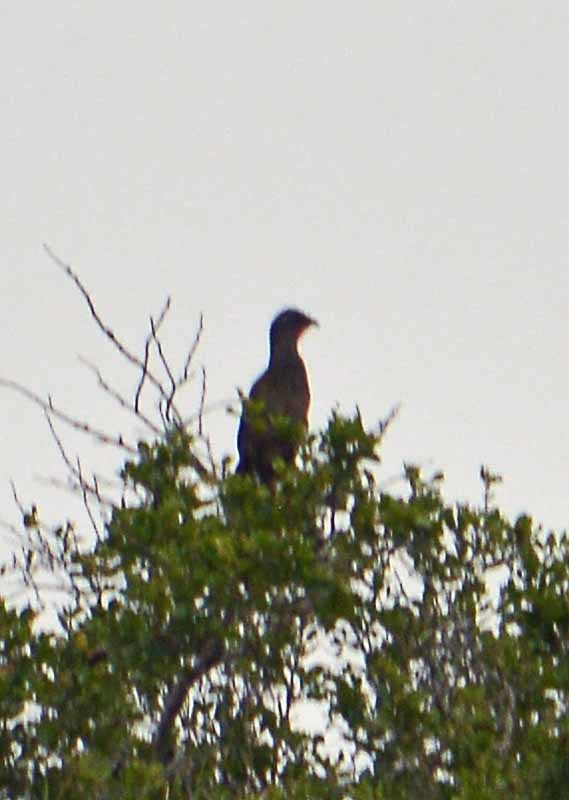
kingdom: Animalia
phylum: Chordata
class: Aves
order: Galliformes
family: Cracidae
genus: Ortalis
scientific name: Ortalis vetula
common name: Plain chachalaca
